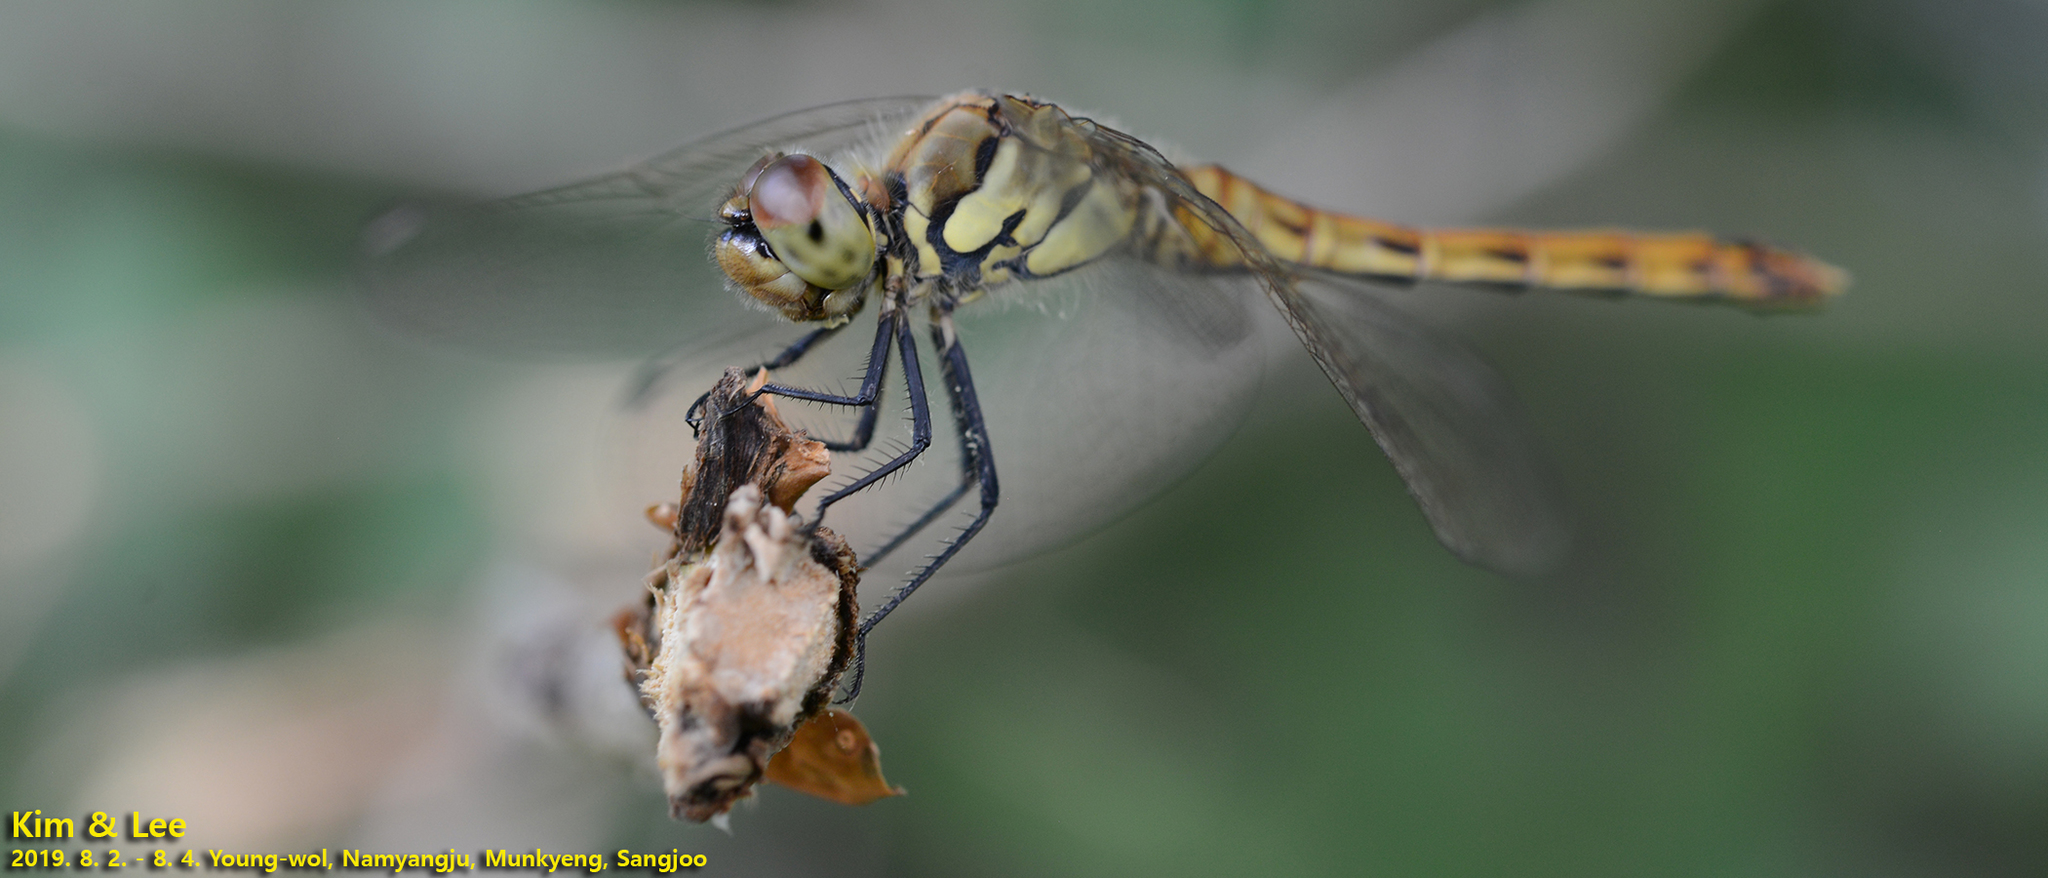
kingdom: Animalia
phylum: Arthropoda
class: Insecta
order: Odonata
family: Libellulidae
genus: Sympetrum
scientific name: Sympetrum depressiusculum
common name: Spotted darter
